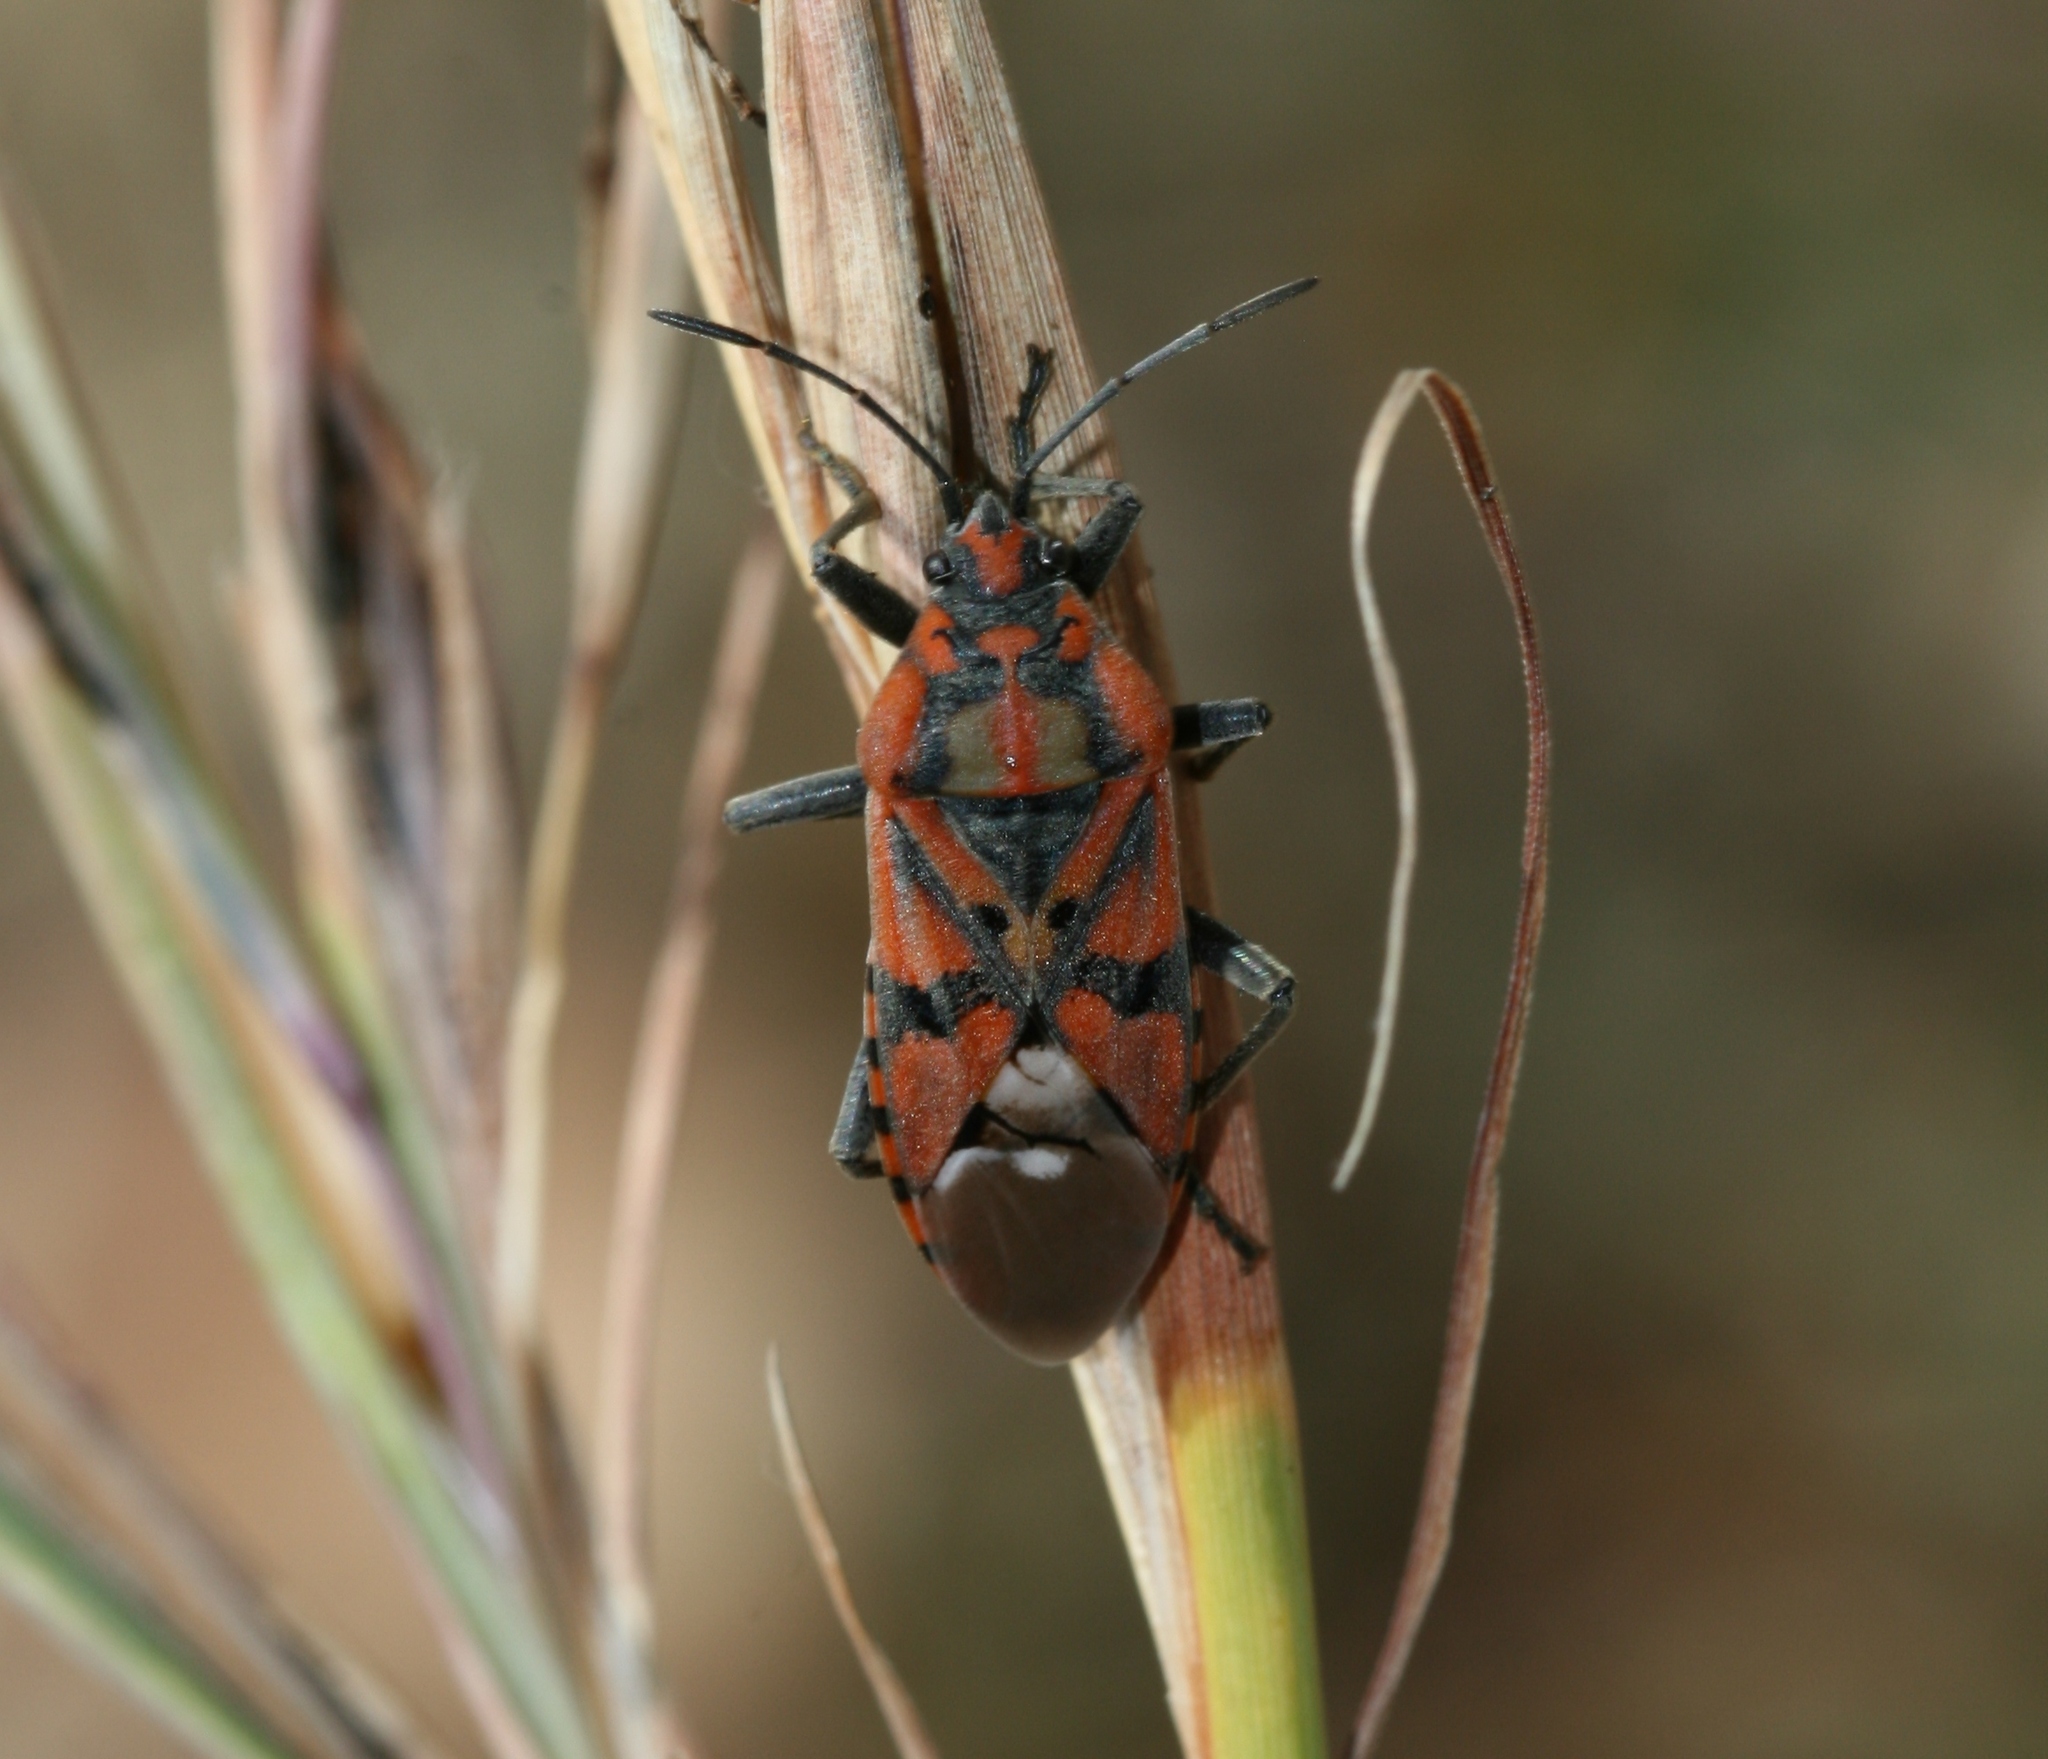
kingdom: Animalia
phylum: Arthropoda
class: Insecta
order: Hemiptera
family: Lygaeidae
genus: Spilostethus
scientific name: Spilostethus pandurus
